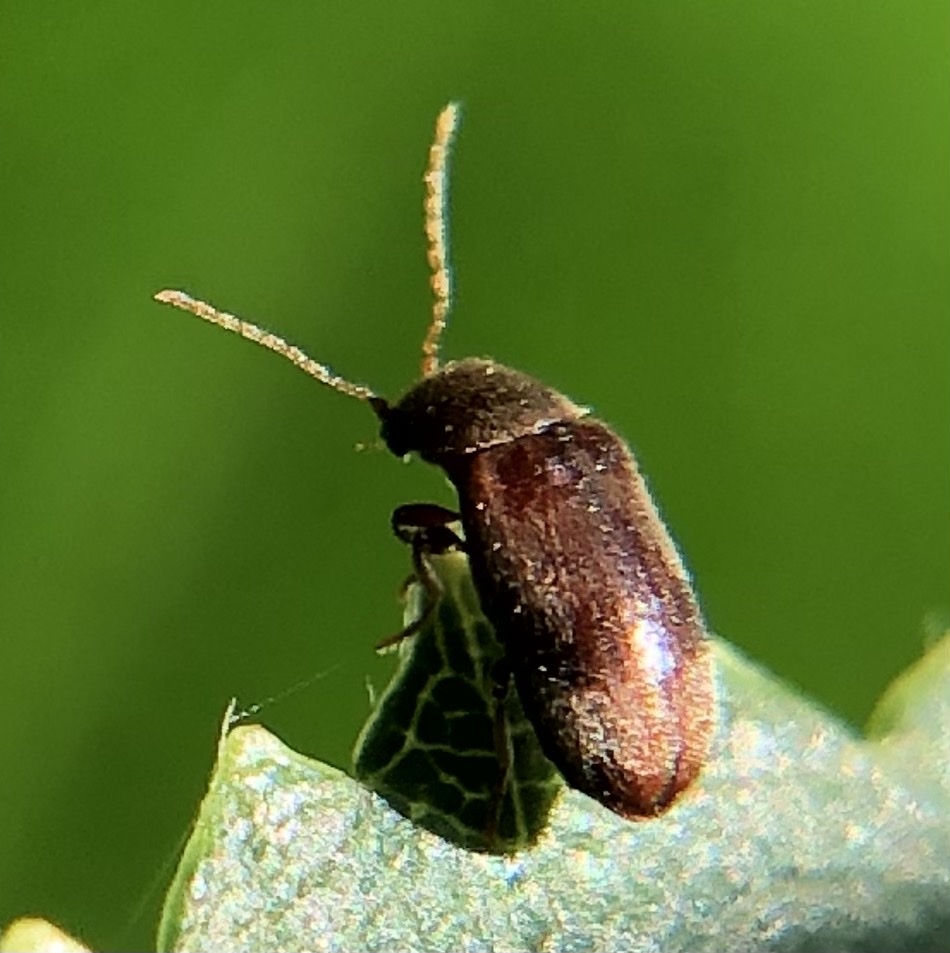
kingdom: Animalia
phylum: Arthropoda
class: Insecta
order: Coleoptera
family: Ptinidae
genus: Ochina
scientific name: Ochina ptinoides
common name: Ivy boring beetle
